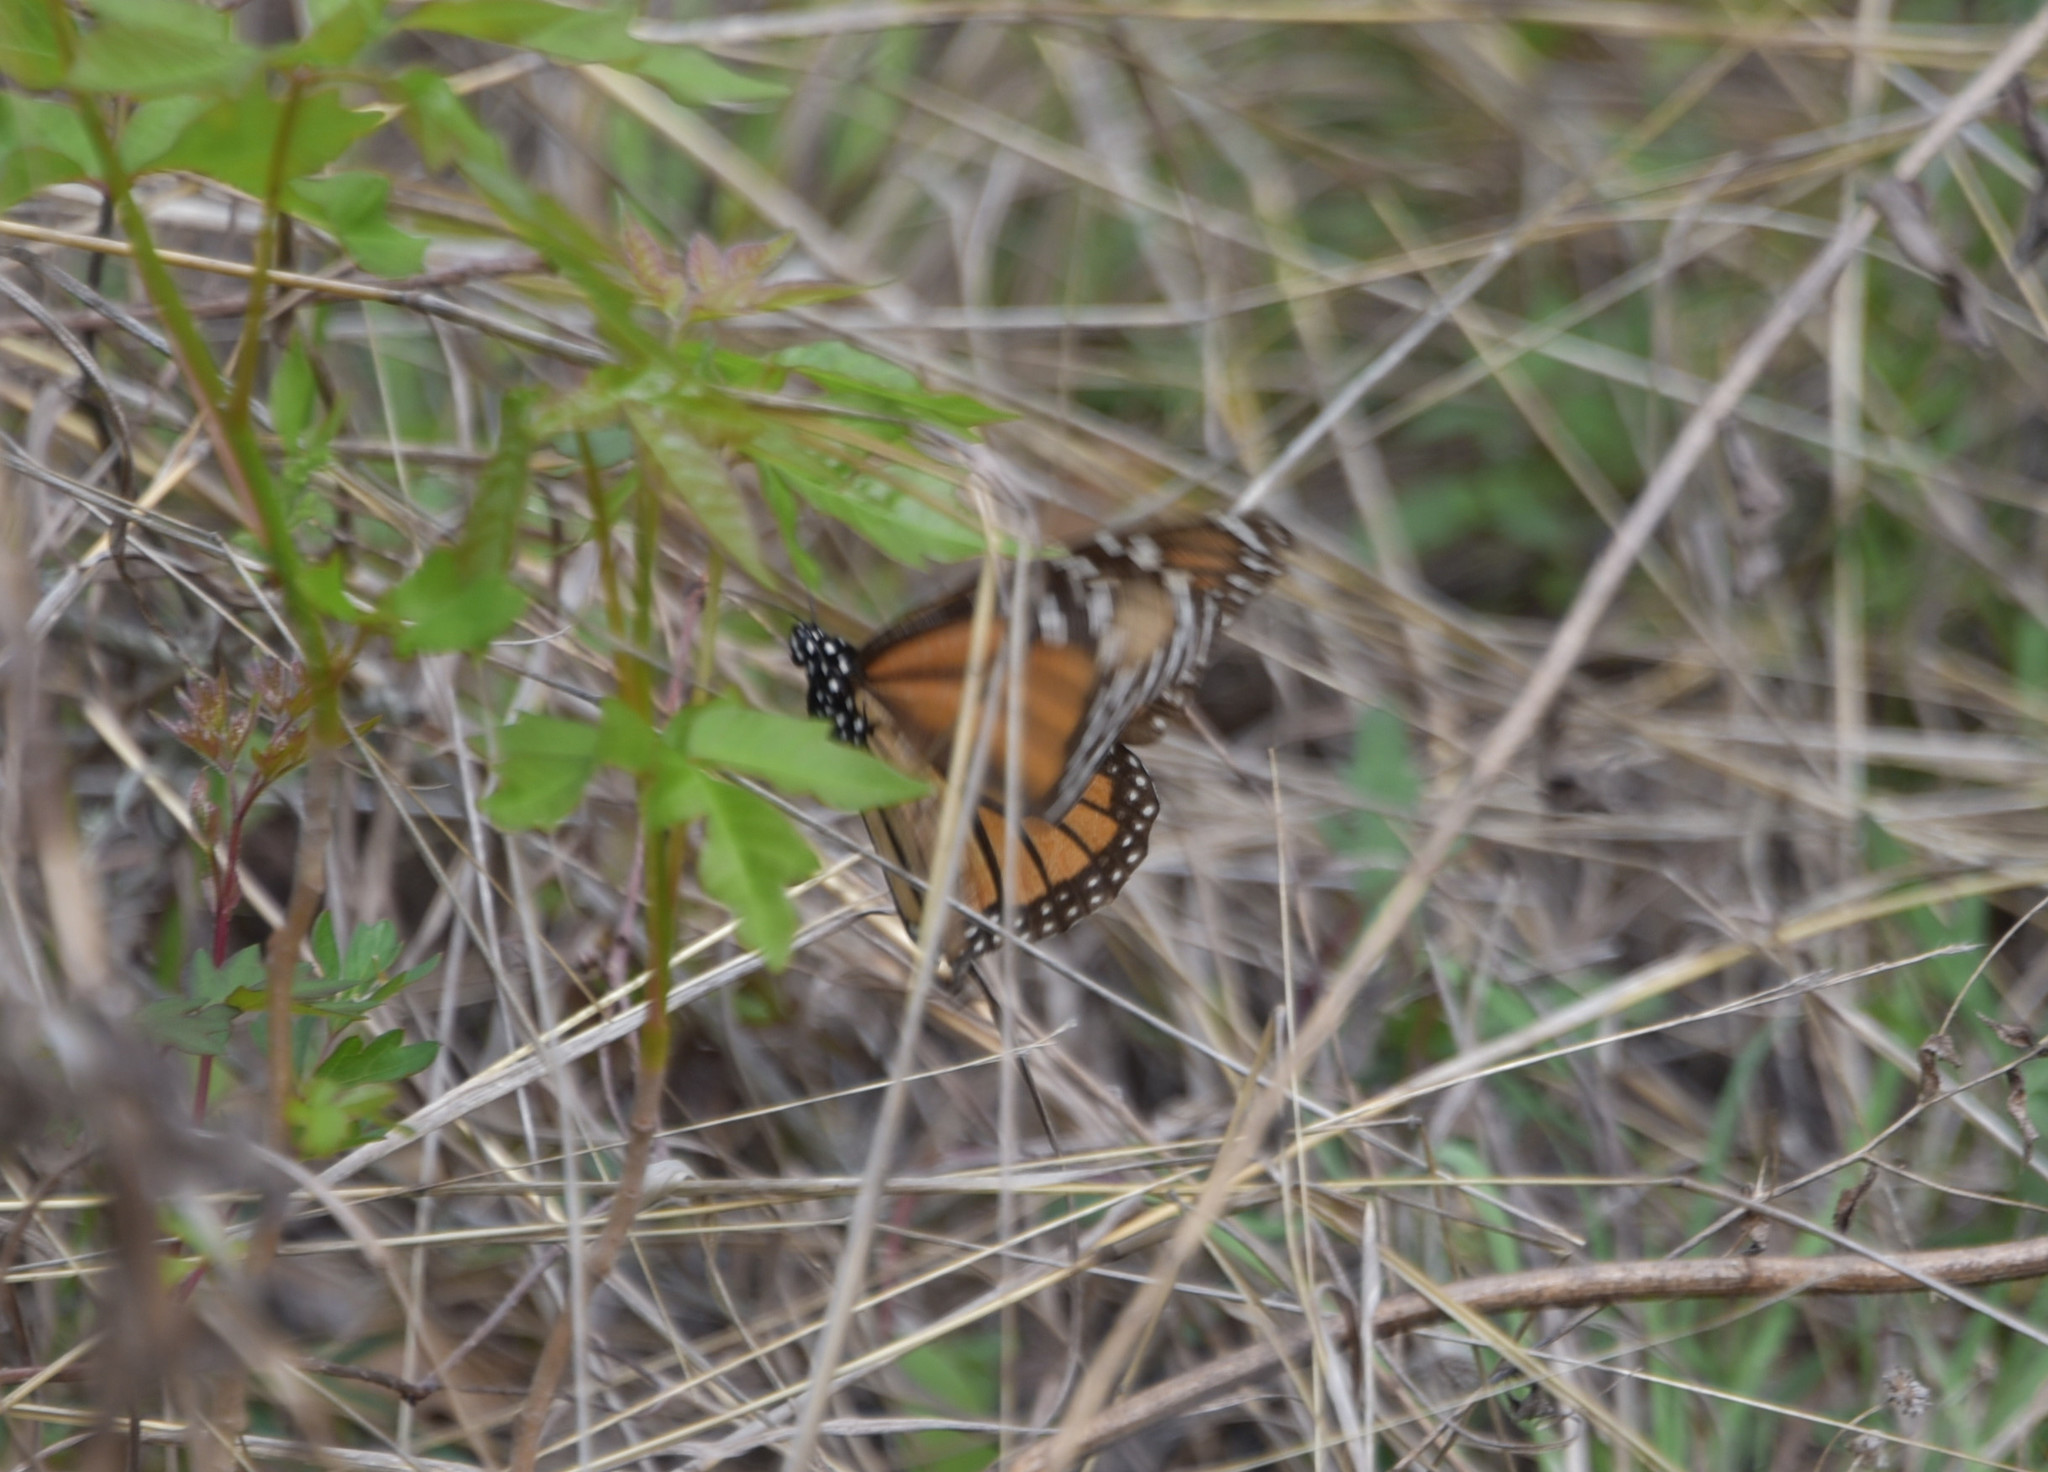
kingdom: Animalia
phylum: Arthropoda
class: Insecta
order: Lepidoptera
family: Nymphalidae
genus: Danaus
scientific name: Danaus plexippus
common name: Monarch
